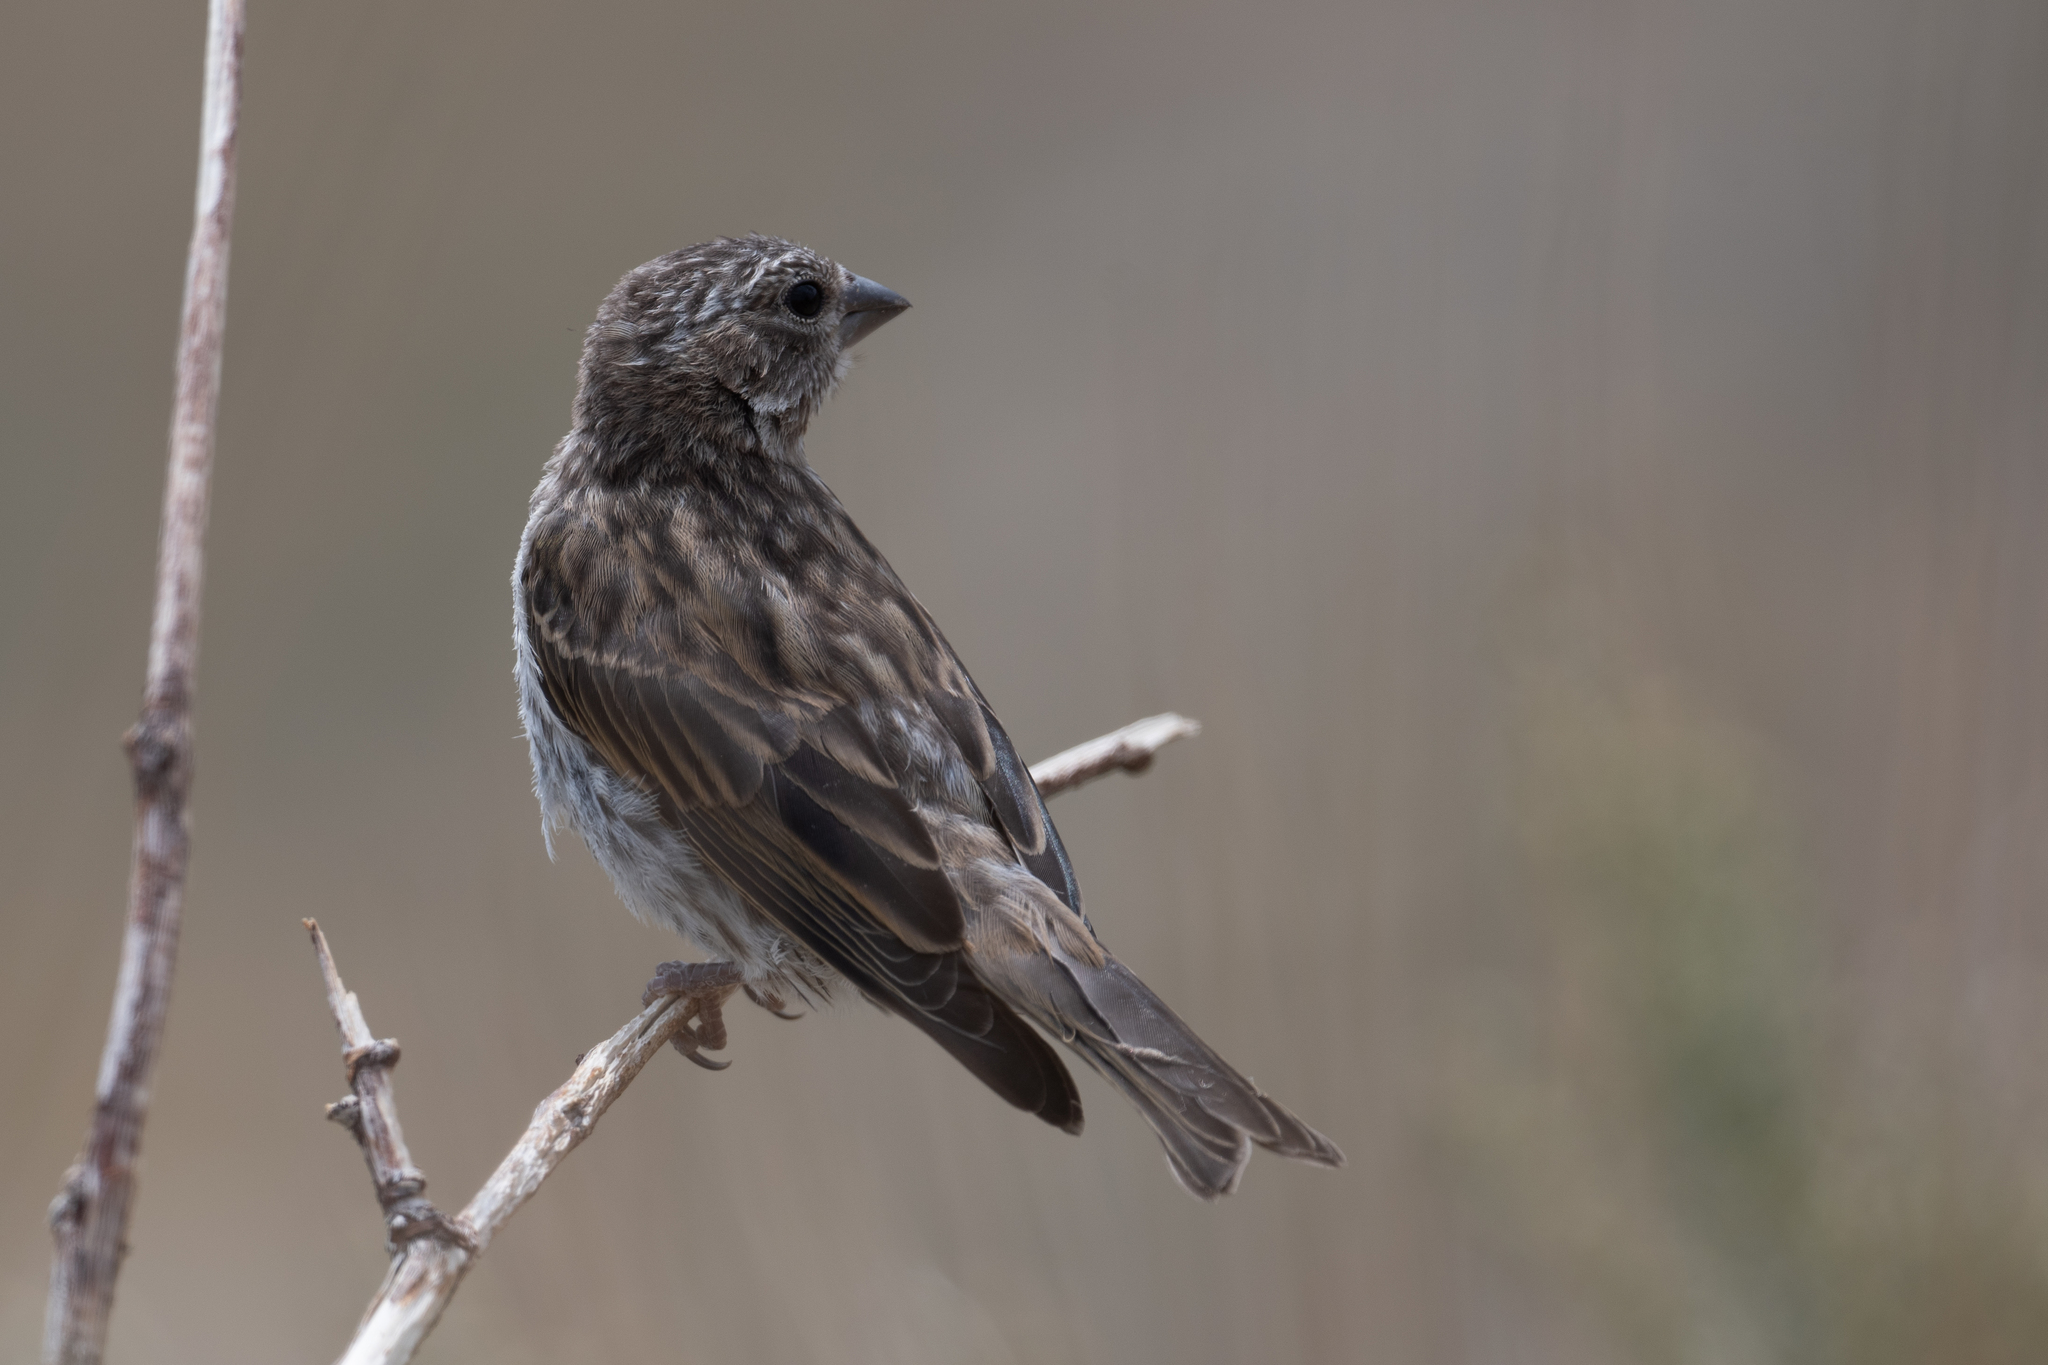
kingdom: Animalia
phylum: Chordata
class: Aves
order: Passeriformes
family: Fringillidae
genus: Haemorhous
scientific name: Haemorhous cassinii
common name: Cassin's finch
